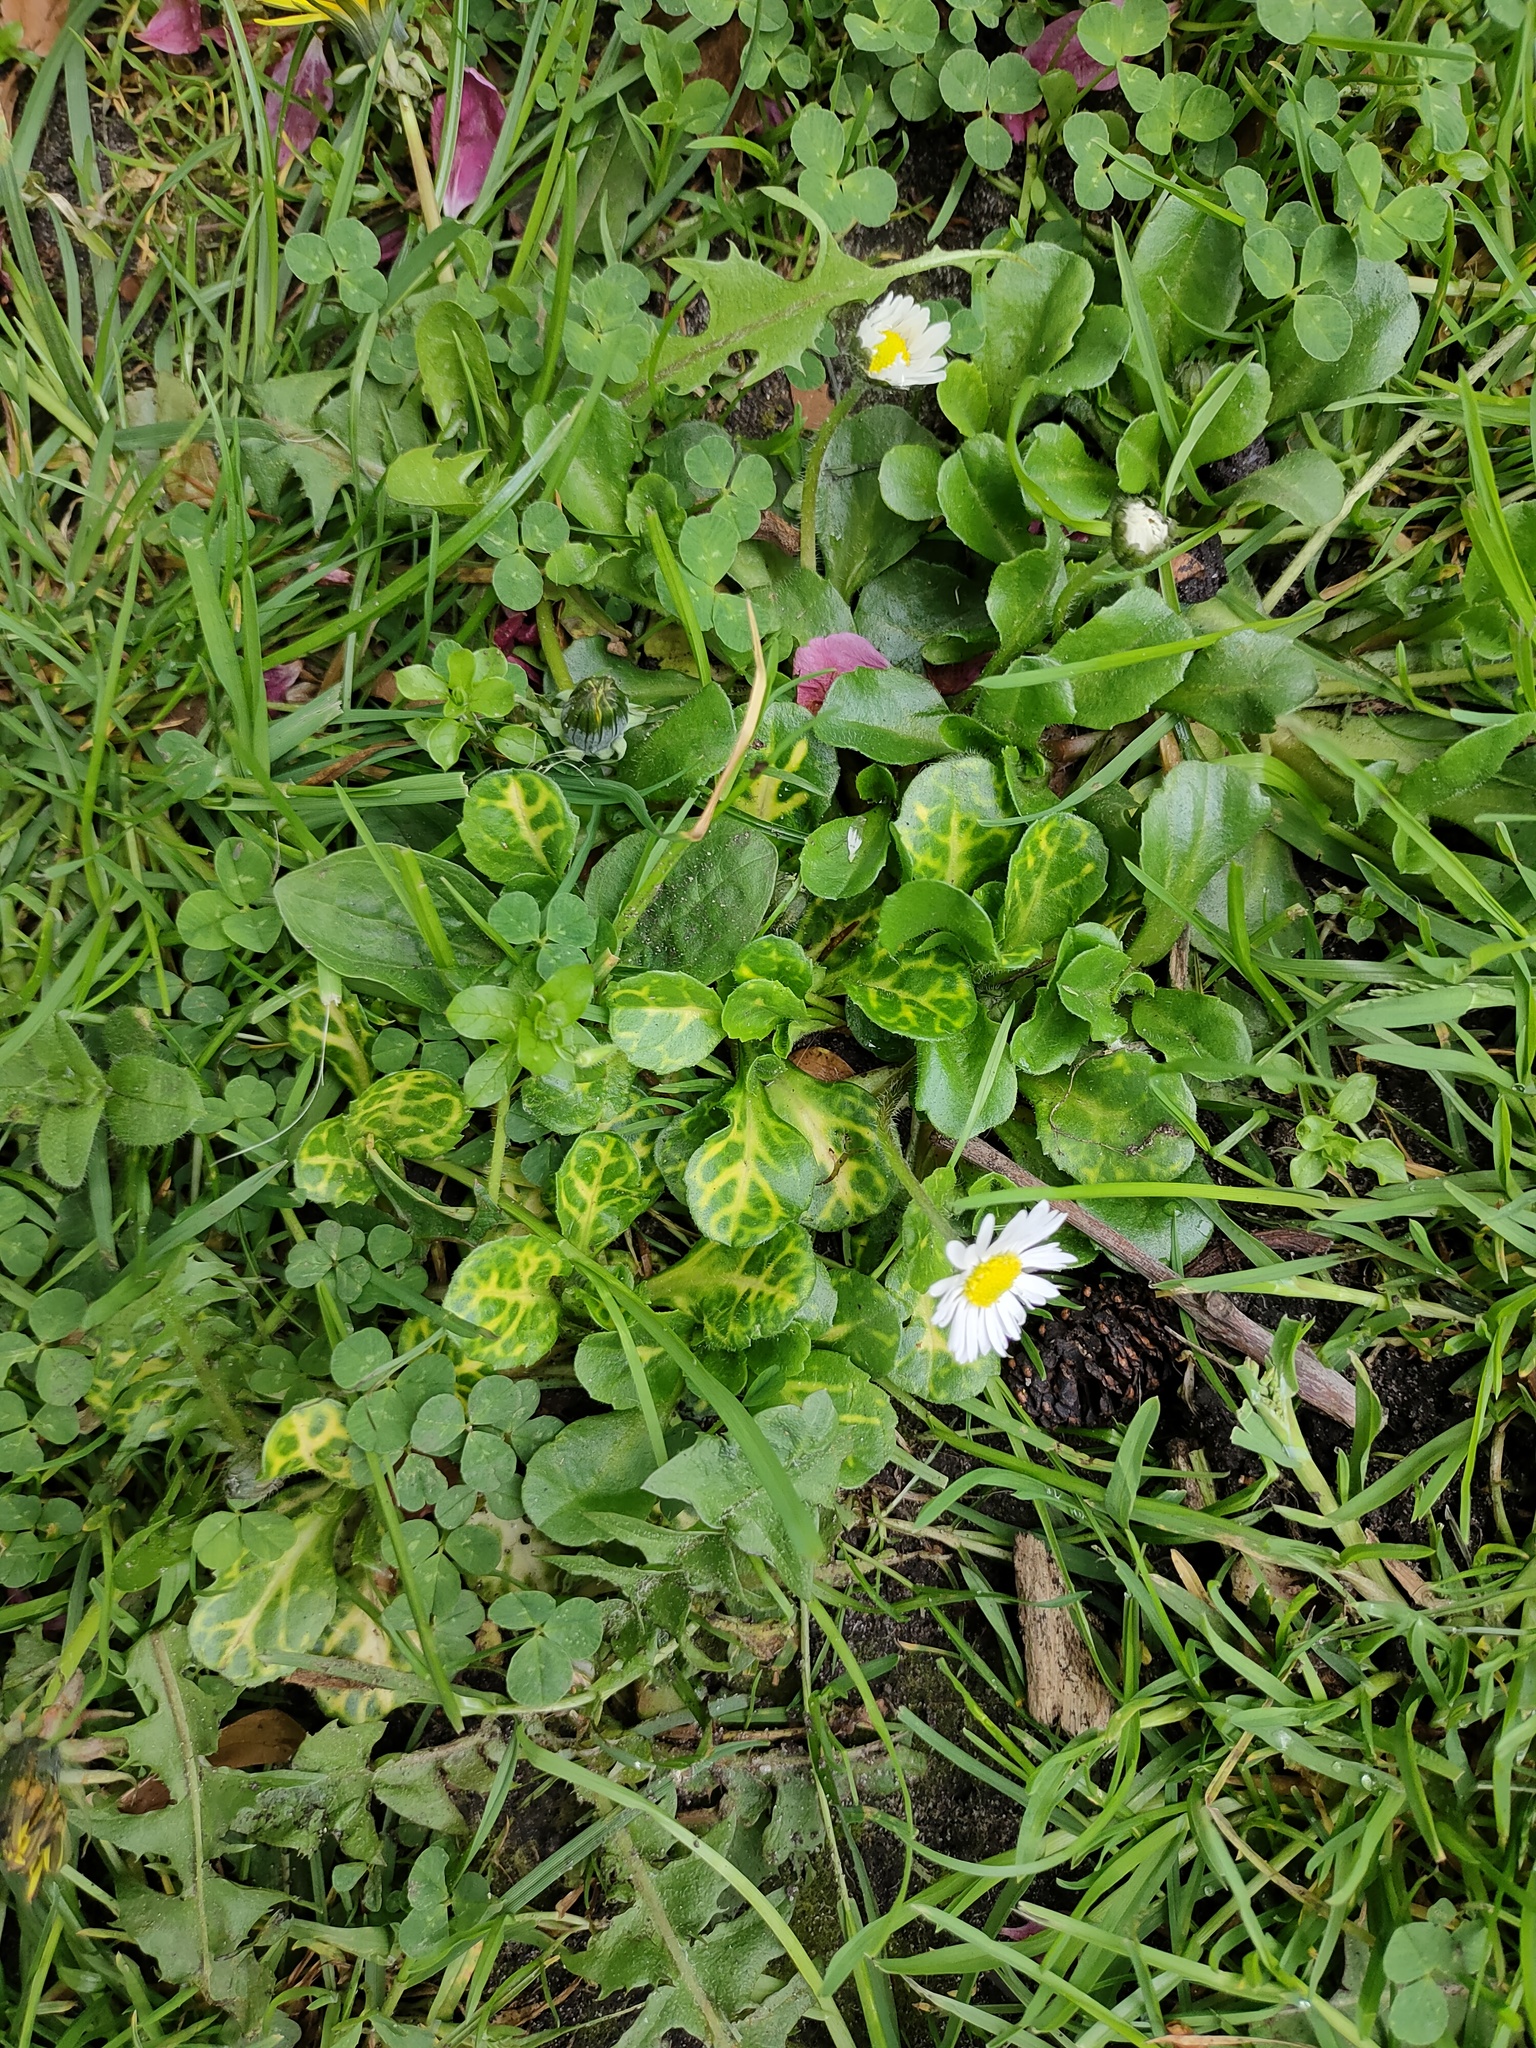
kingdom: Plantae
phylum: Tracheophyta
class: Magnoliopsida
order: Asterales
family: Asteraceae
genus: Bellis
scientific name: Bellis perennis
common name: Lawndaisy
